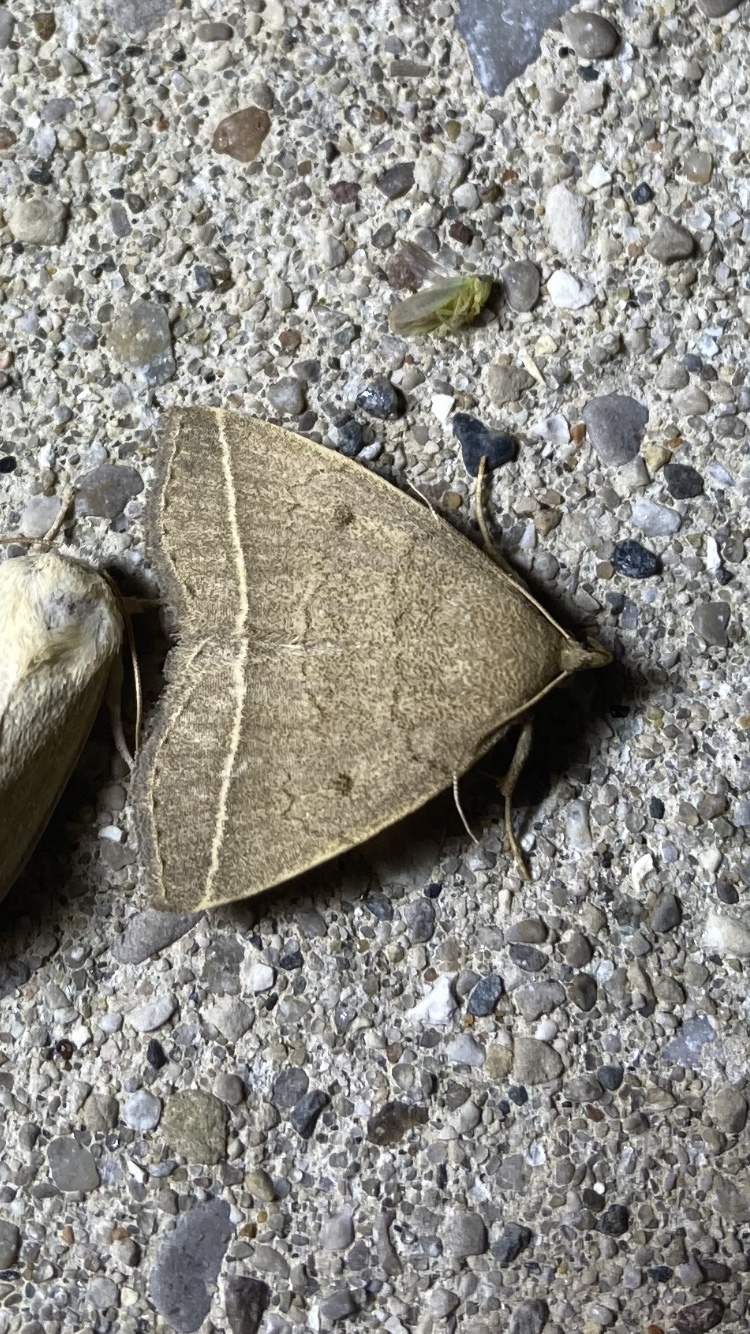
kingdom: Animalia
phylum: Arthropoda
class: Insecta
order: Lepidoptera
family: Erebidae
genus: Zanclognatha
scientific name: Zanclognatha marcidilinea
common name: Yellowish fan-foot
